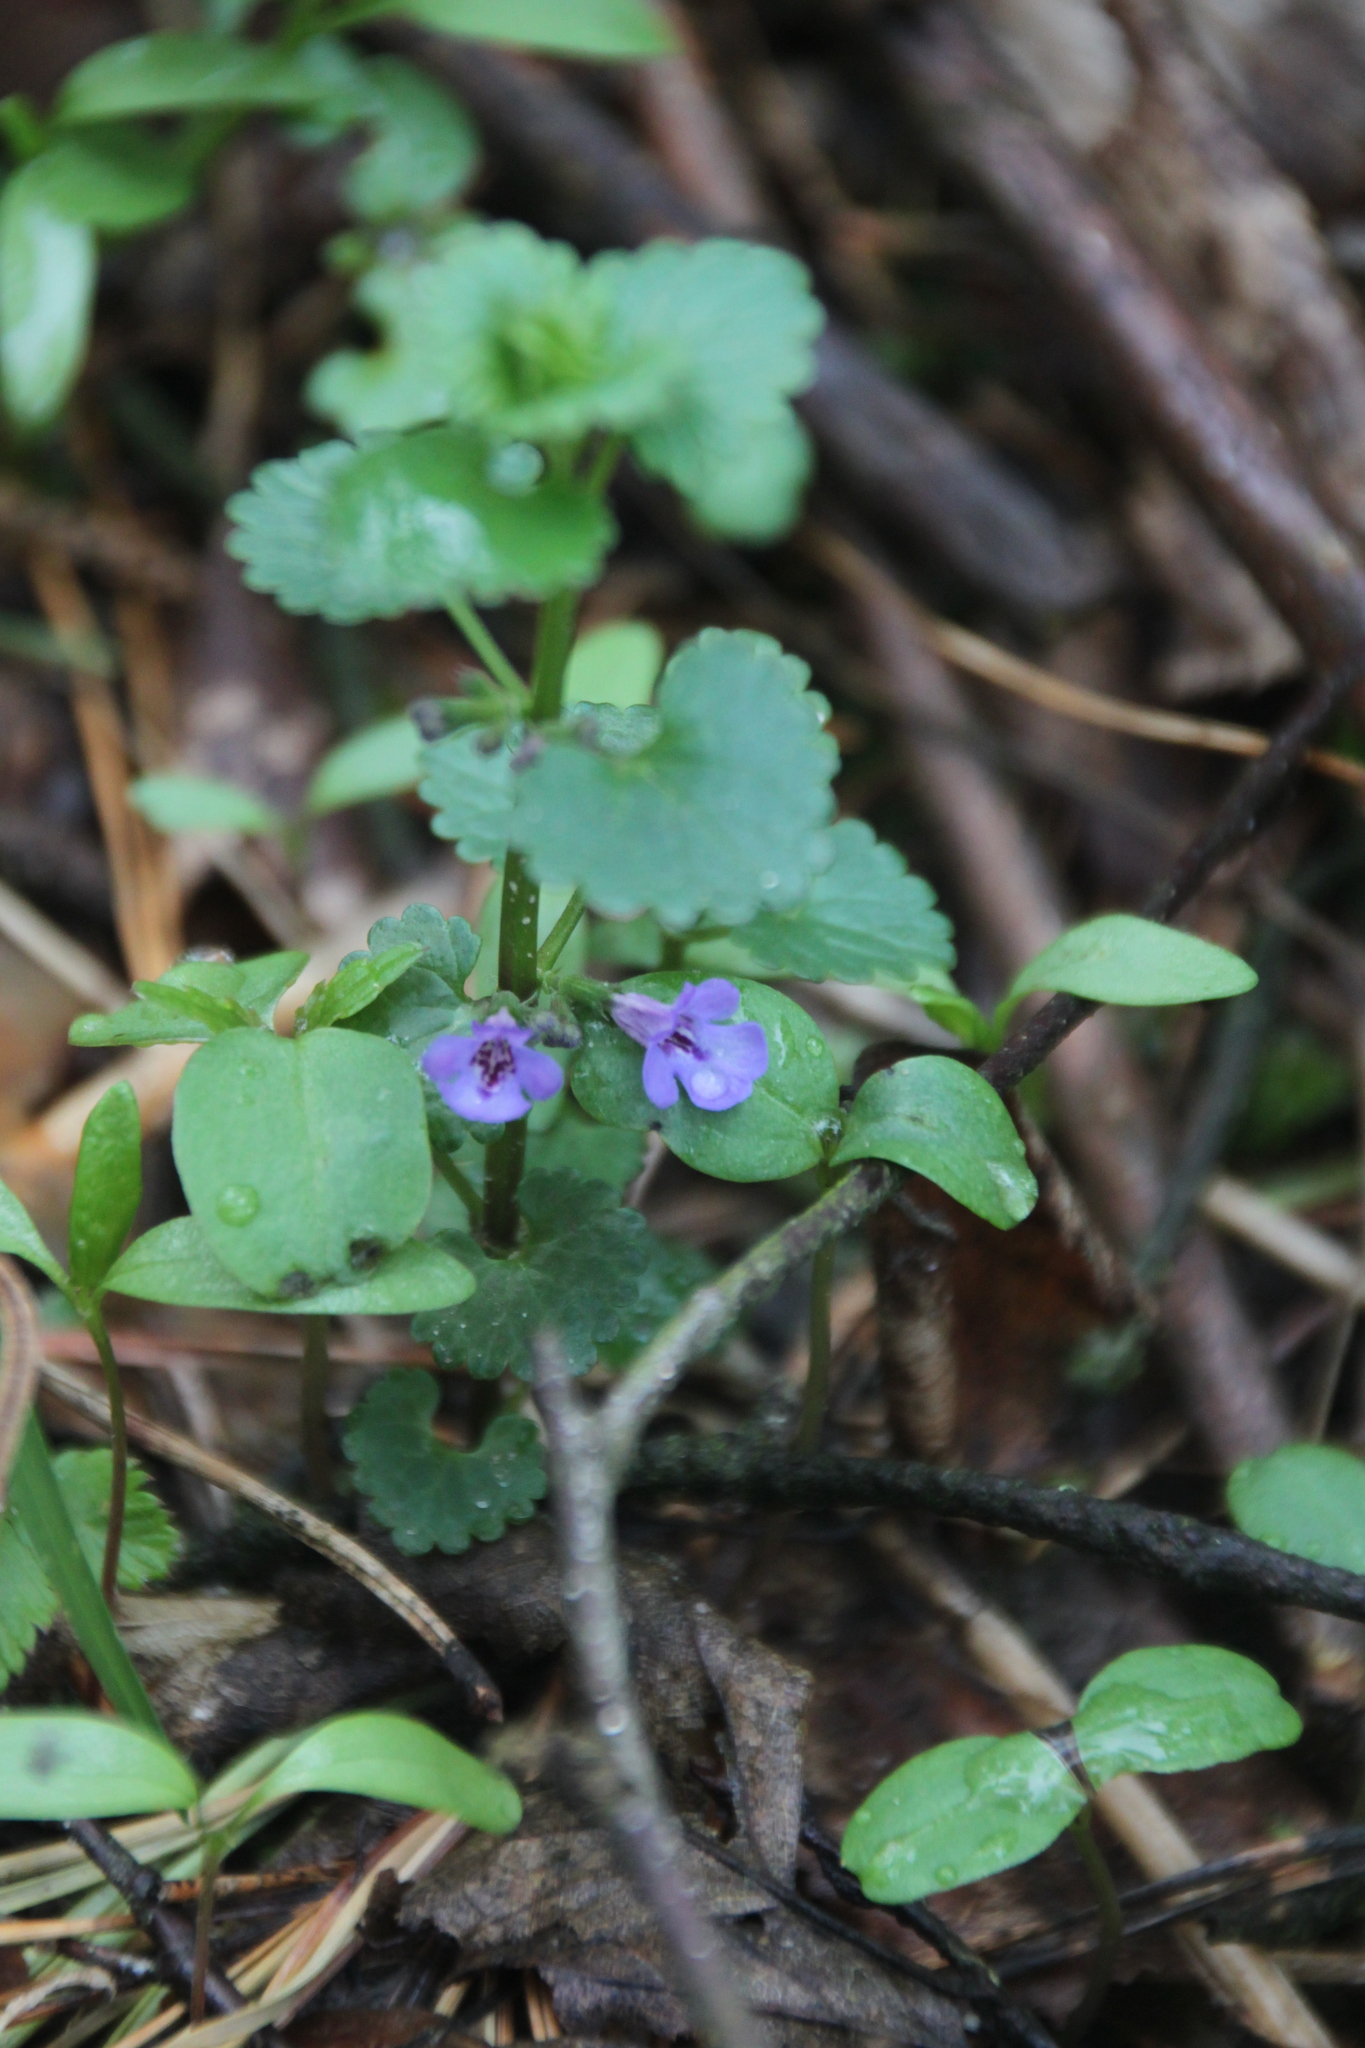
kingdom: Plantae
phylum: Tracheophyta
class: Magnoliopsida
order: Lamiales
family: Lamiaceae
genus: Glechoma
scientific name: Glechoma hederacea
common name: Ground ivy
